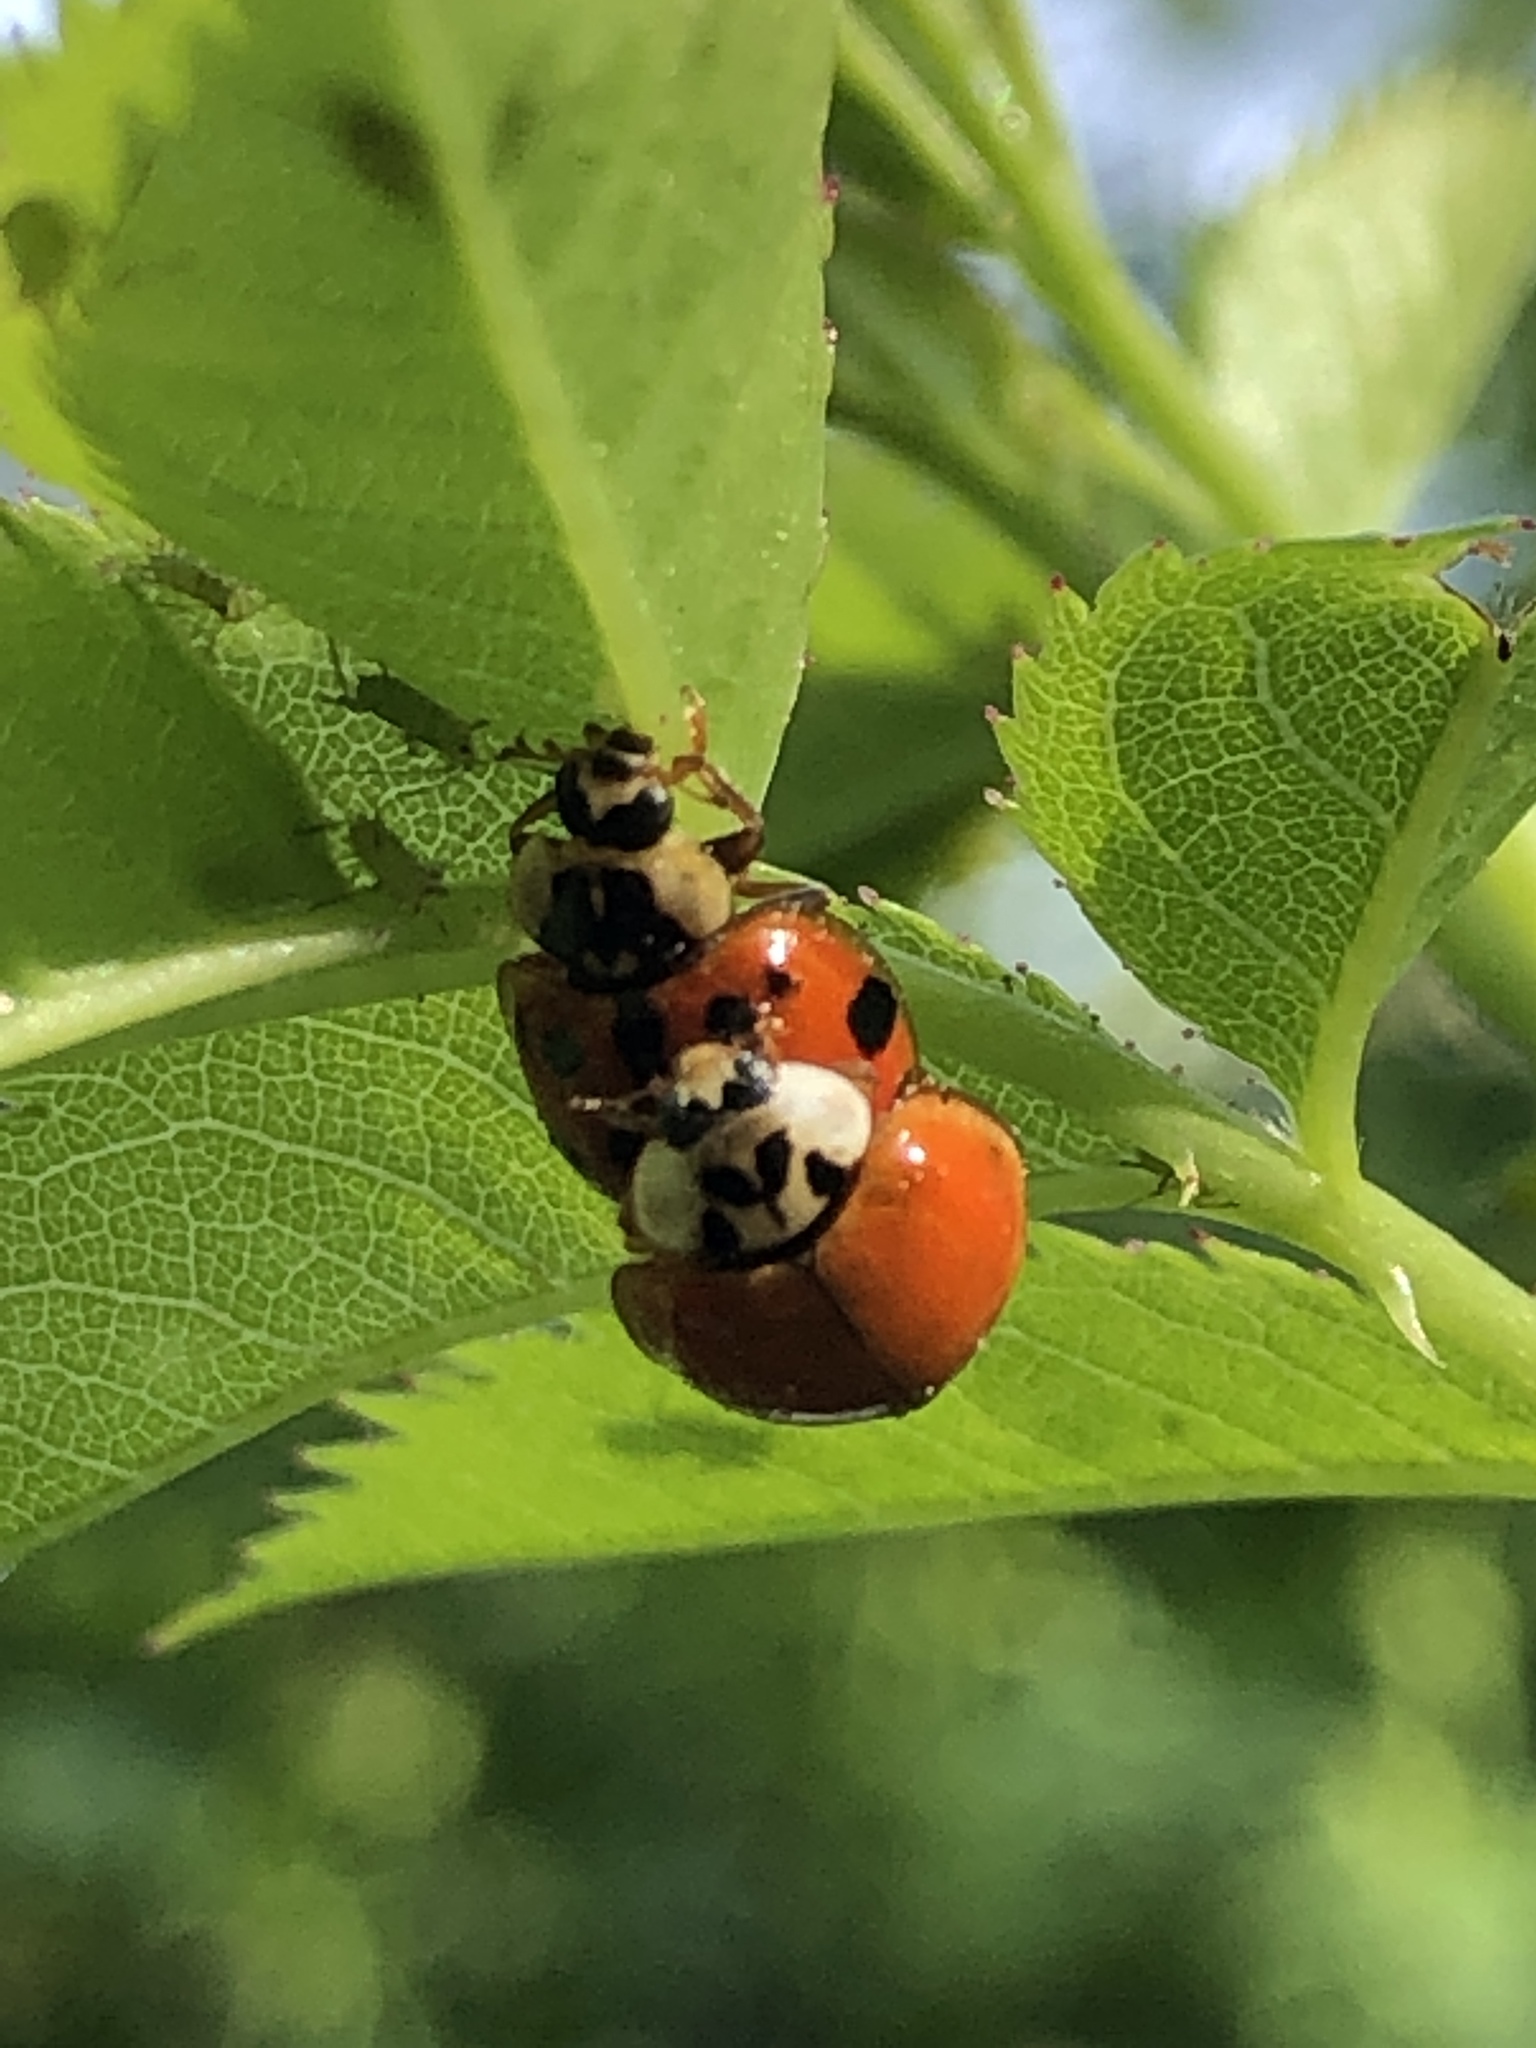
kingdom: Animalia
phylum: Arthropoda
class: Insecta
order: Coleoptera
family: Coccinellidae
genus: Harmonia
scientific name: Harmonia axyridis
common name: Harlequin ladybird
